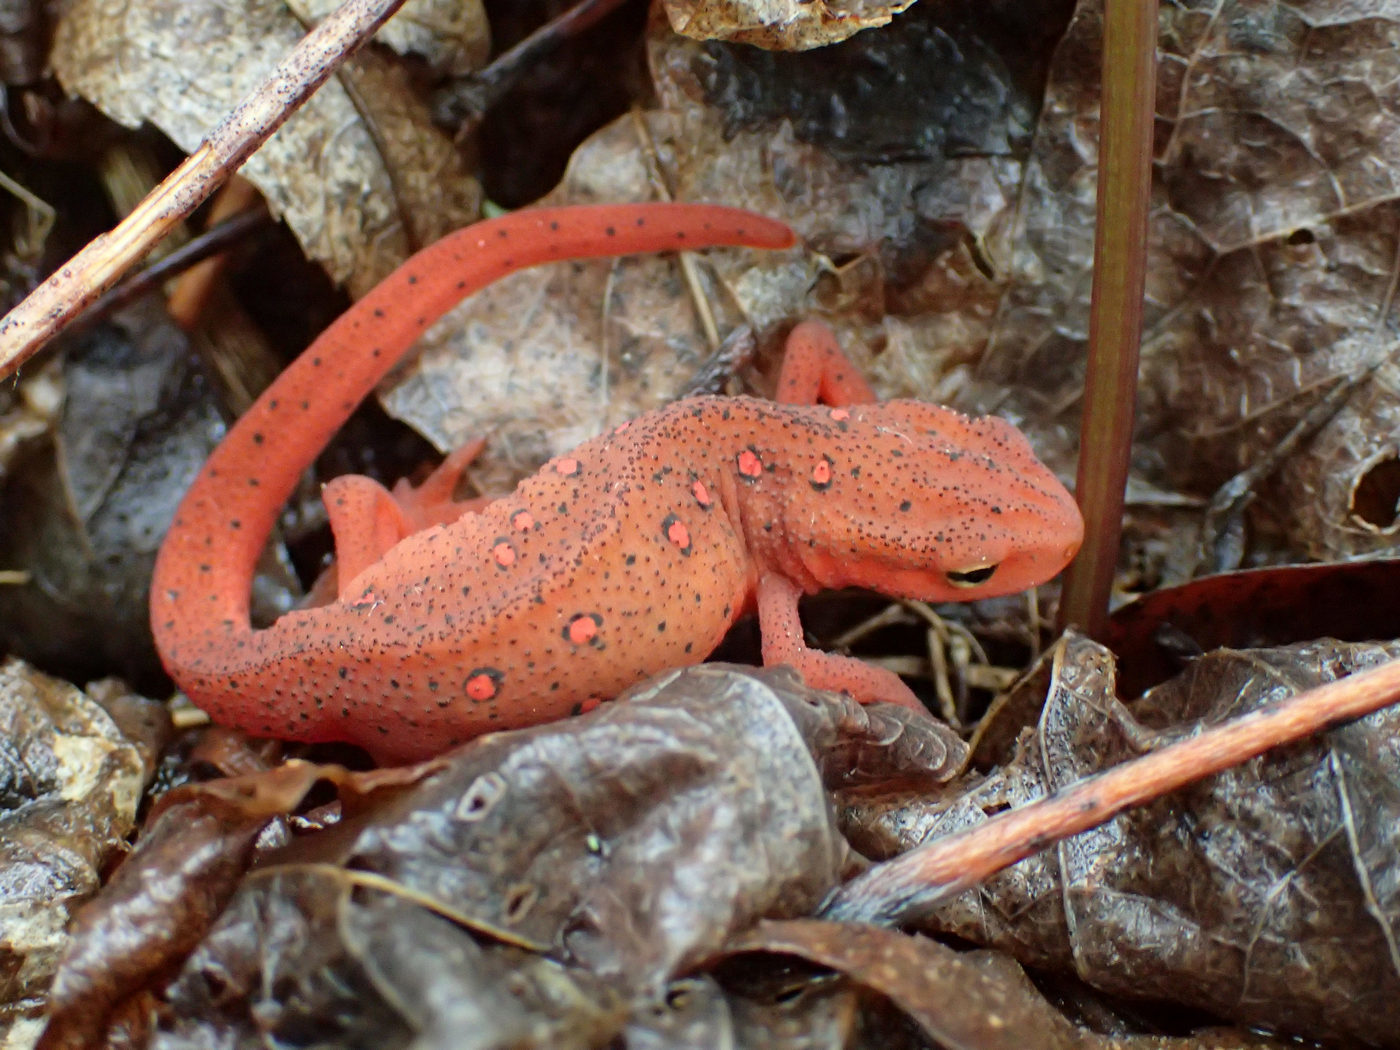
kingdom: Animalia
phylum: Chordata
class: Amphibia
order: Caudata
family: Salamandridae
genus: Notophthalmus
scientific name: Notophthalmus viridescens
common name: Eastern newt
